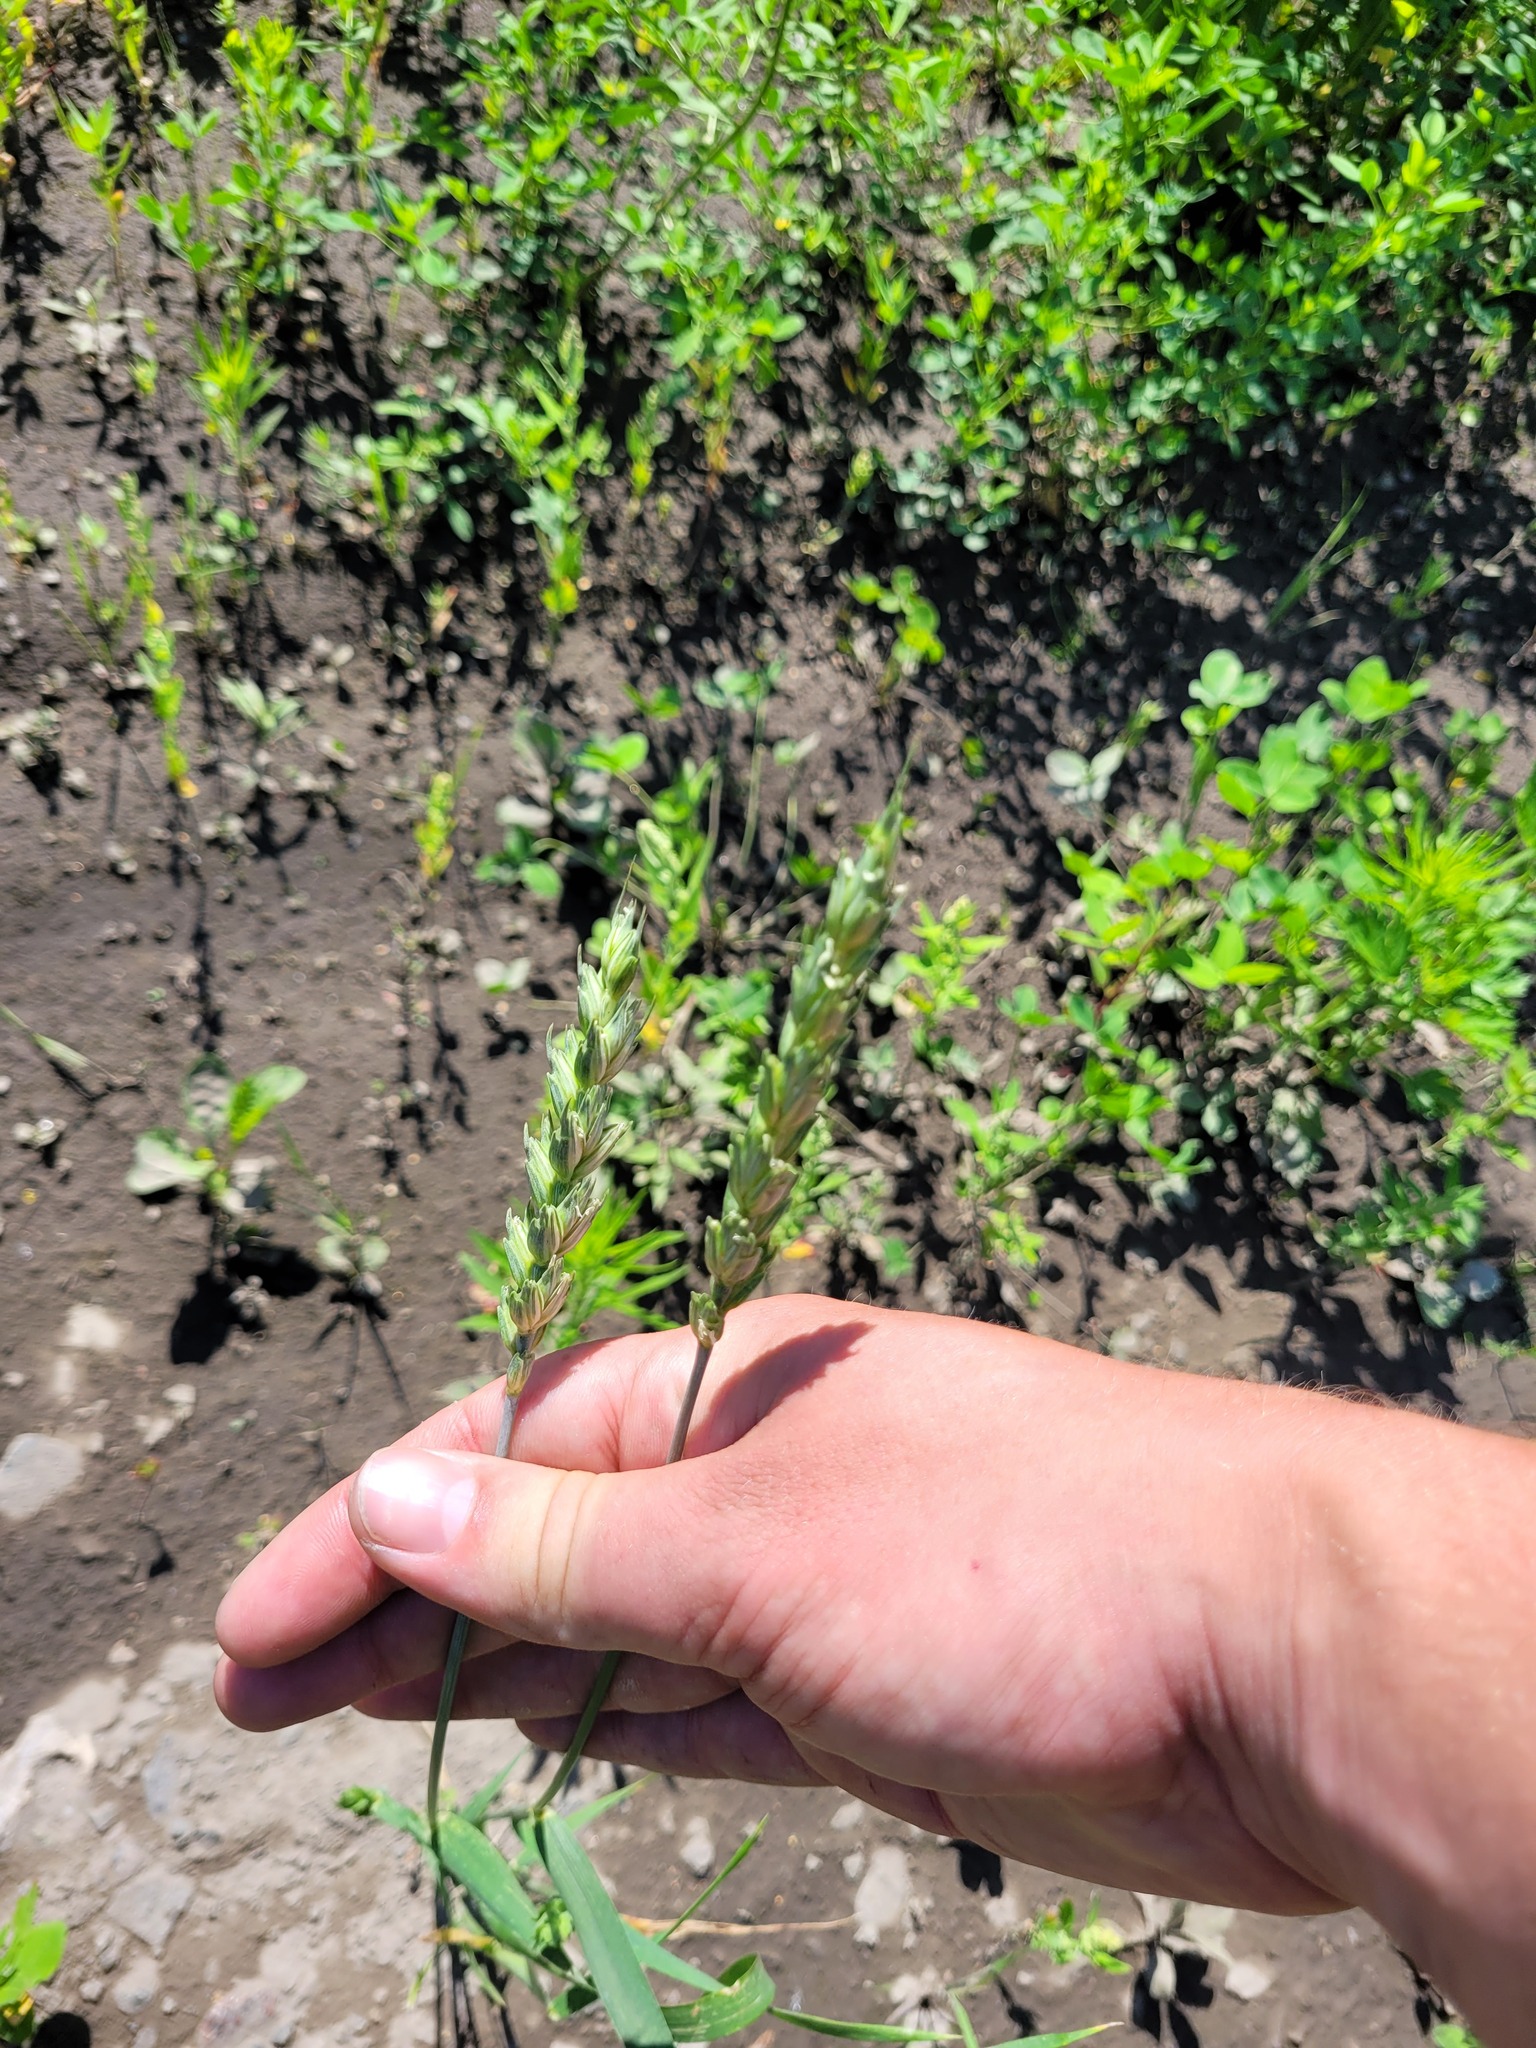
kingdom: Plantae
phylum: Tracheophyta
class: Liliopsida
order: Poales
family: Poaceae
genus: Triticum
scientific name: Triticum aestivum
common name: Common wheat
